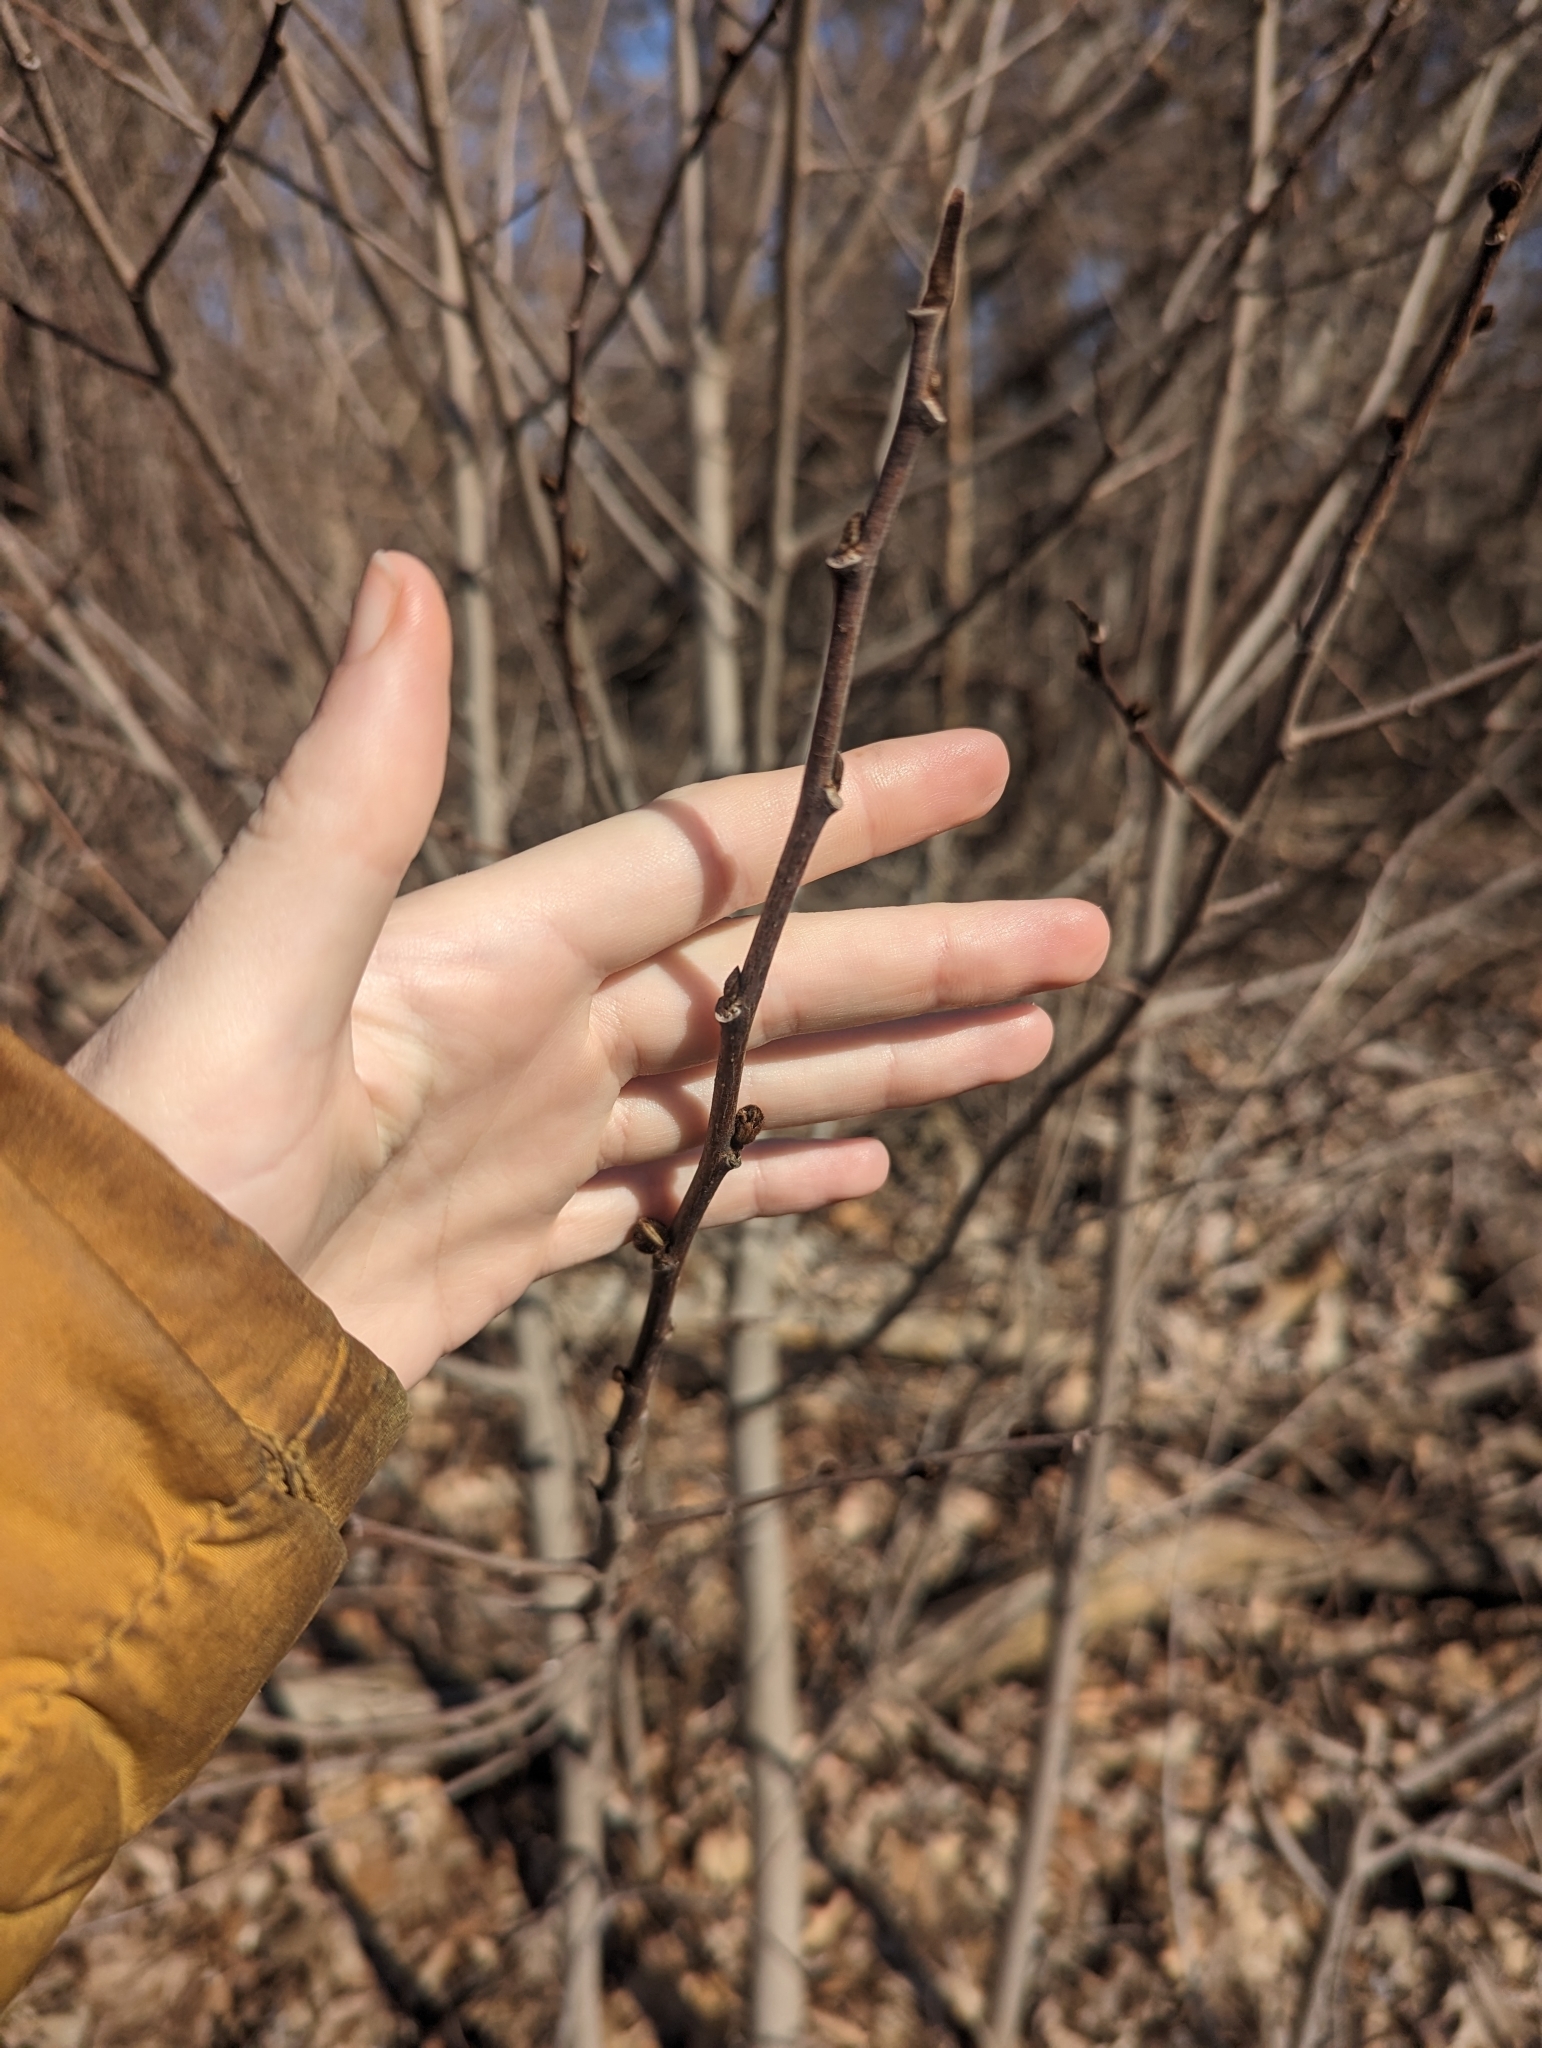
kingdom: Plantae
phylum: Tracheophyta
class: Magnoliopsida
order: Magnoliales
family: Annonaceae
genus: Asimina
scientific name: Asimina triloba
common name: Dog-banana
